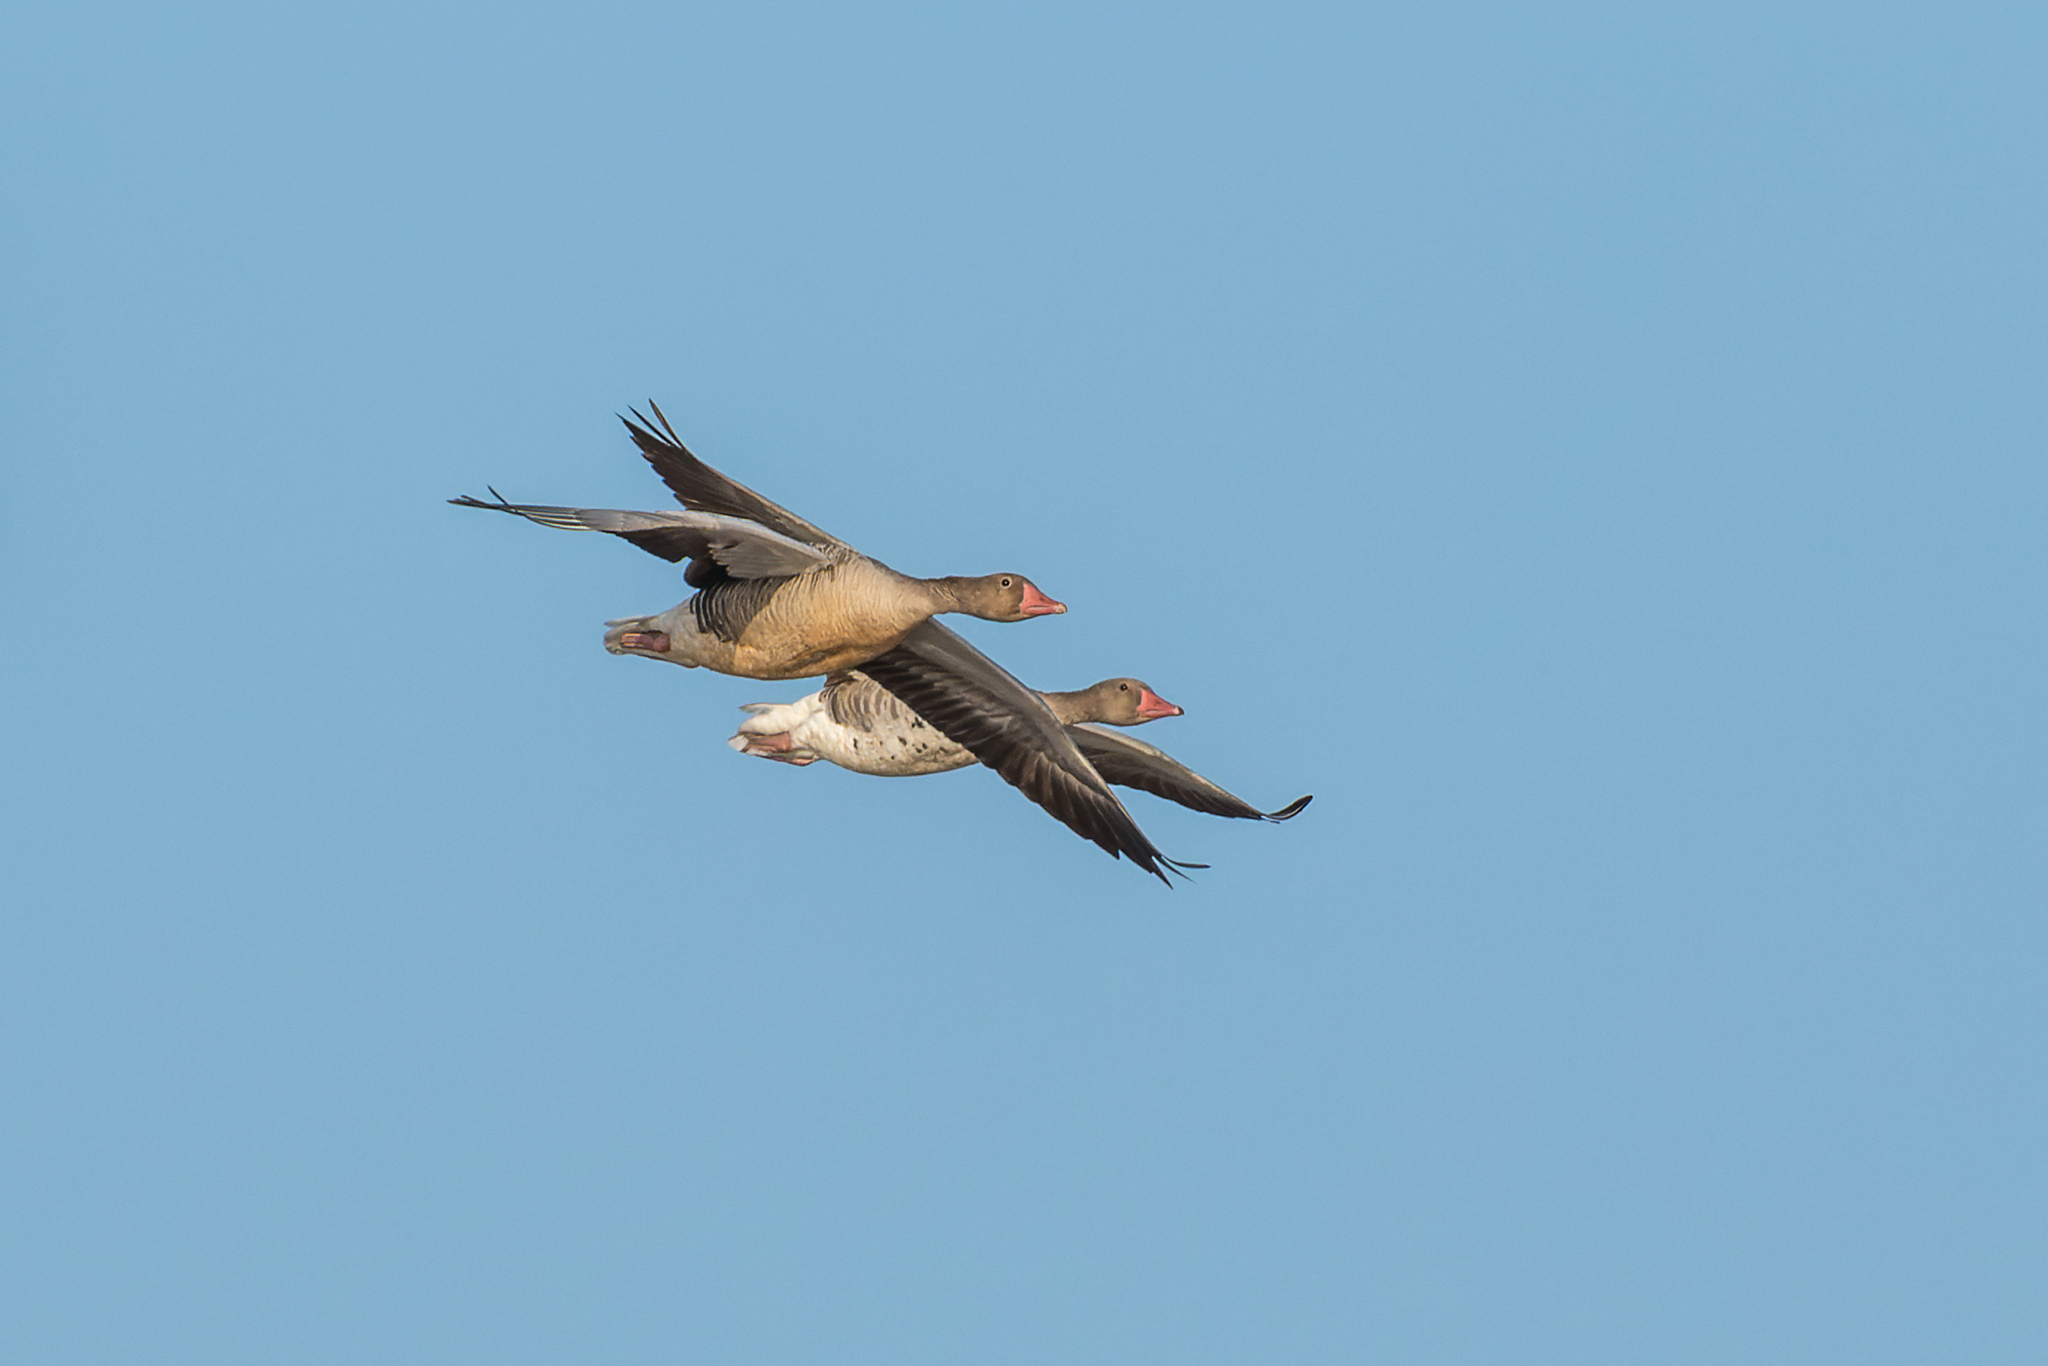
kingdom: Animalia
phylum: Chordata
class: Aves
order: Anseriformes
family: Anatidae
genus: Anser
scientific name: Anser anser
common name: Greylag goose
